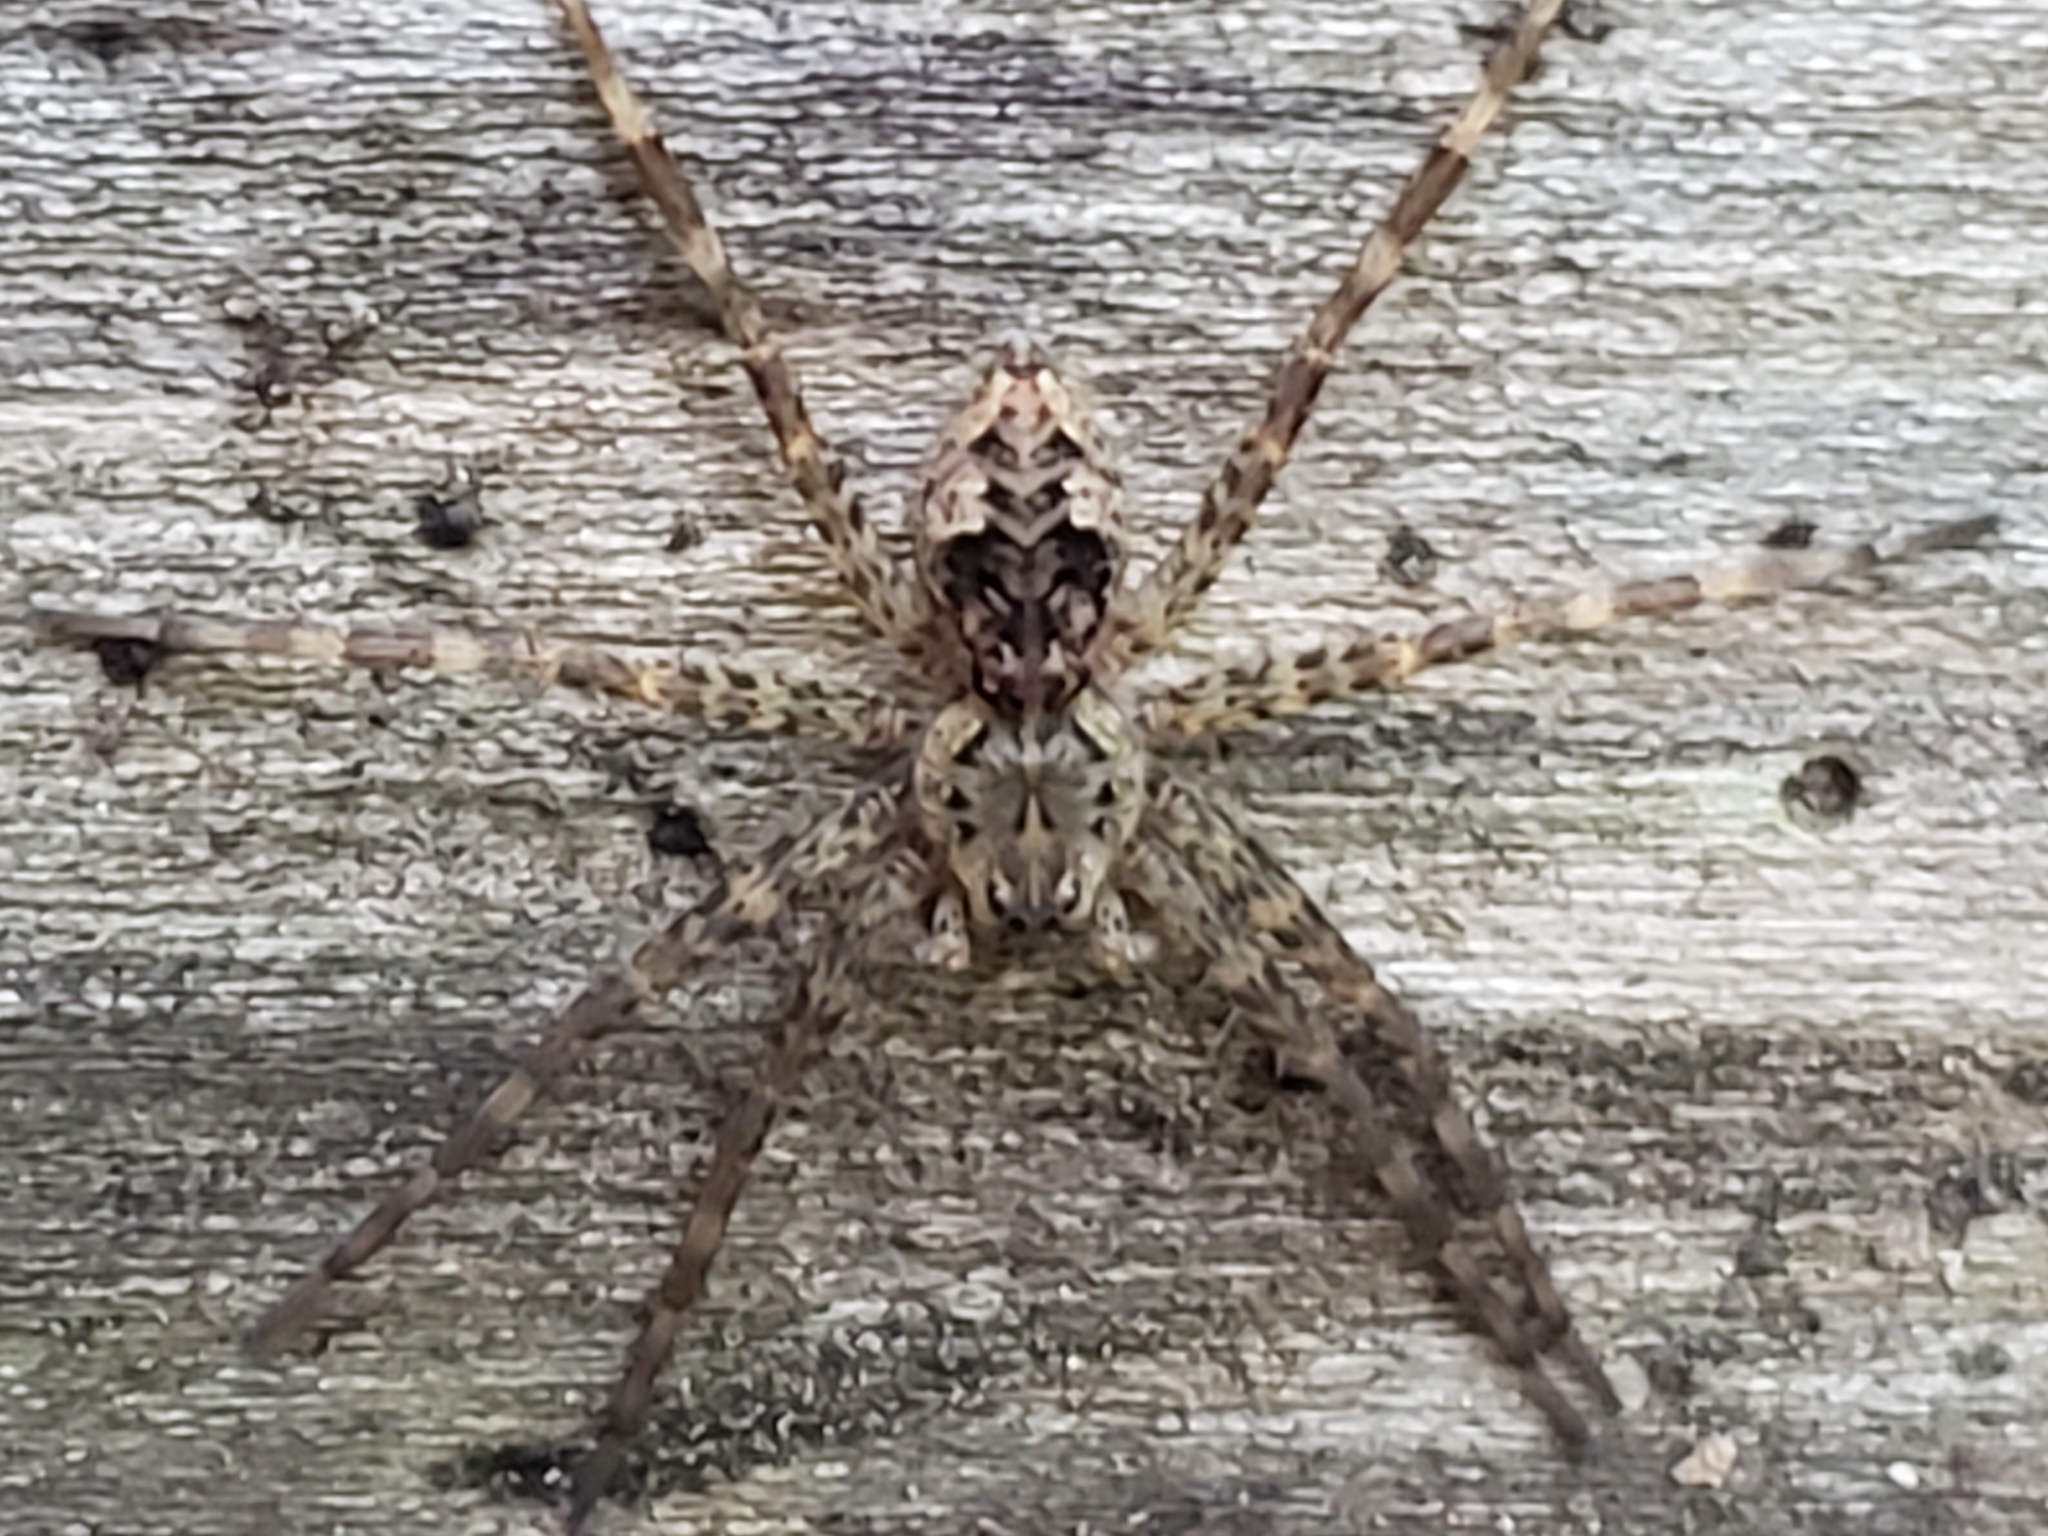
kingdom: Animalia
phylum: Arthropoda
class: Arachnida
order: Araneae
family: Pisauridae
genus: Dolomedes
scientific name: Dolomedes tenebrosus
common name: Dark fishing spider
